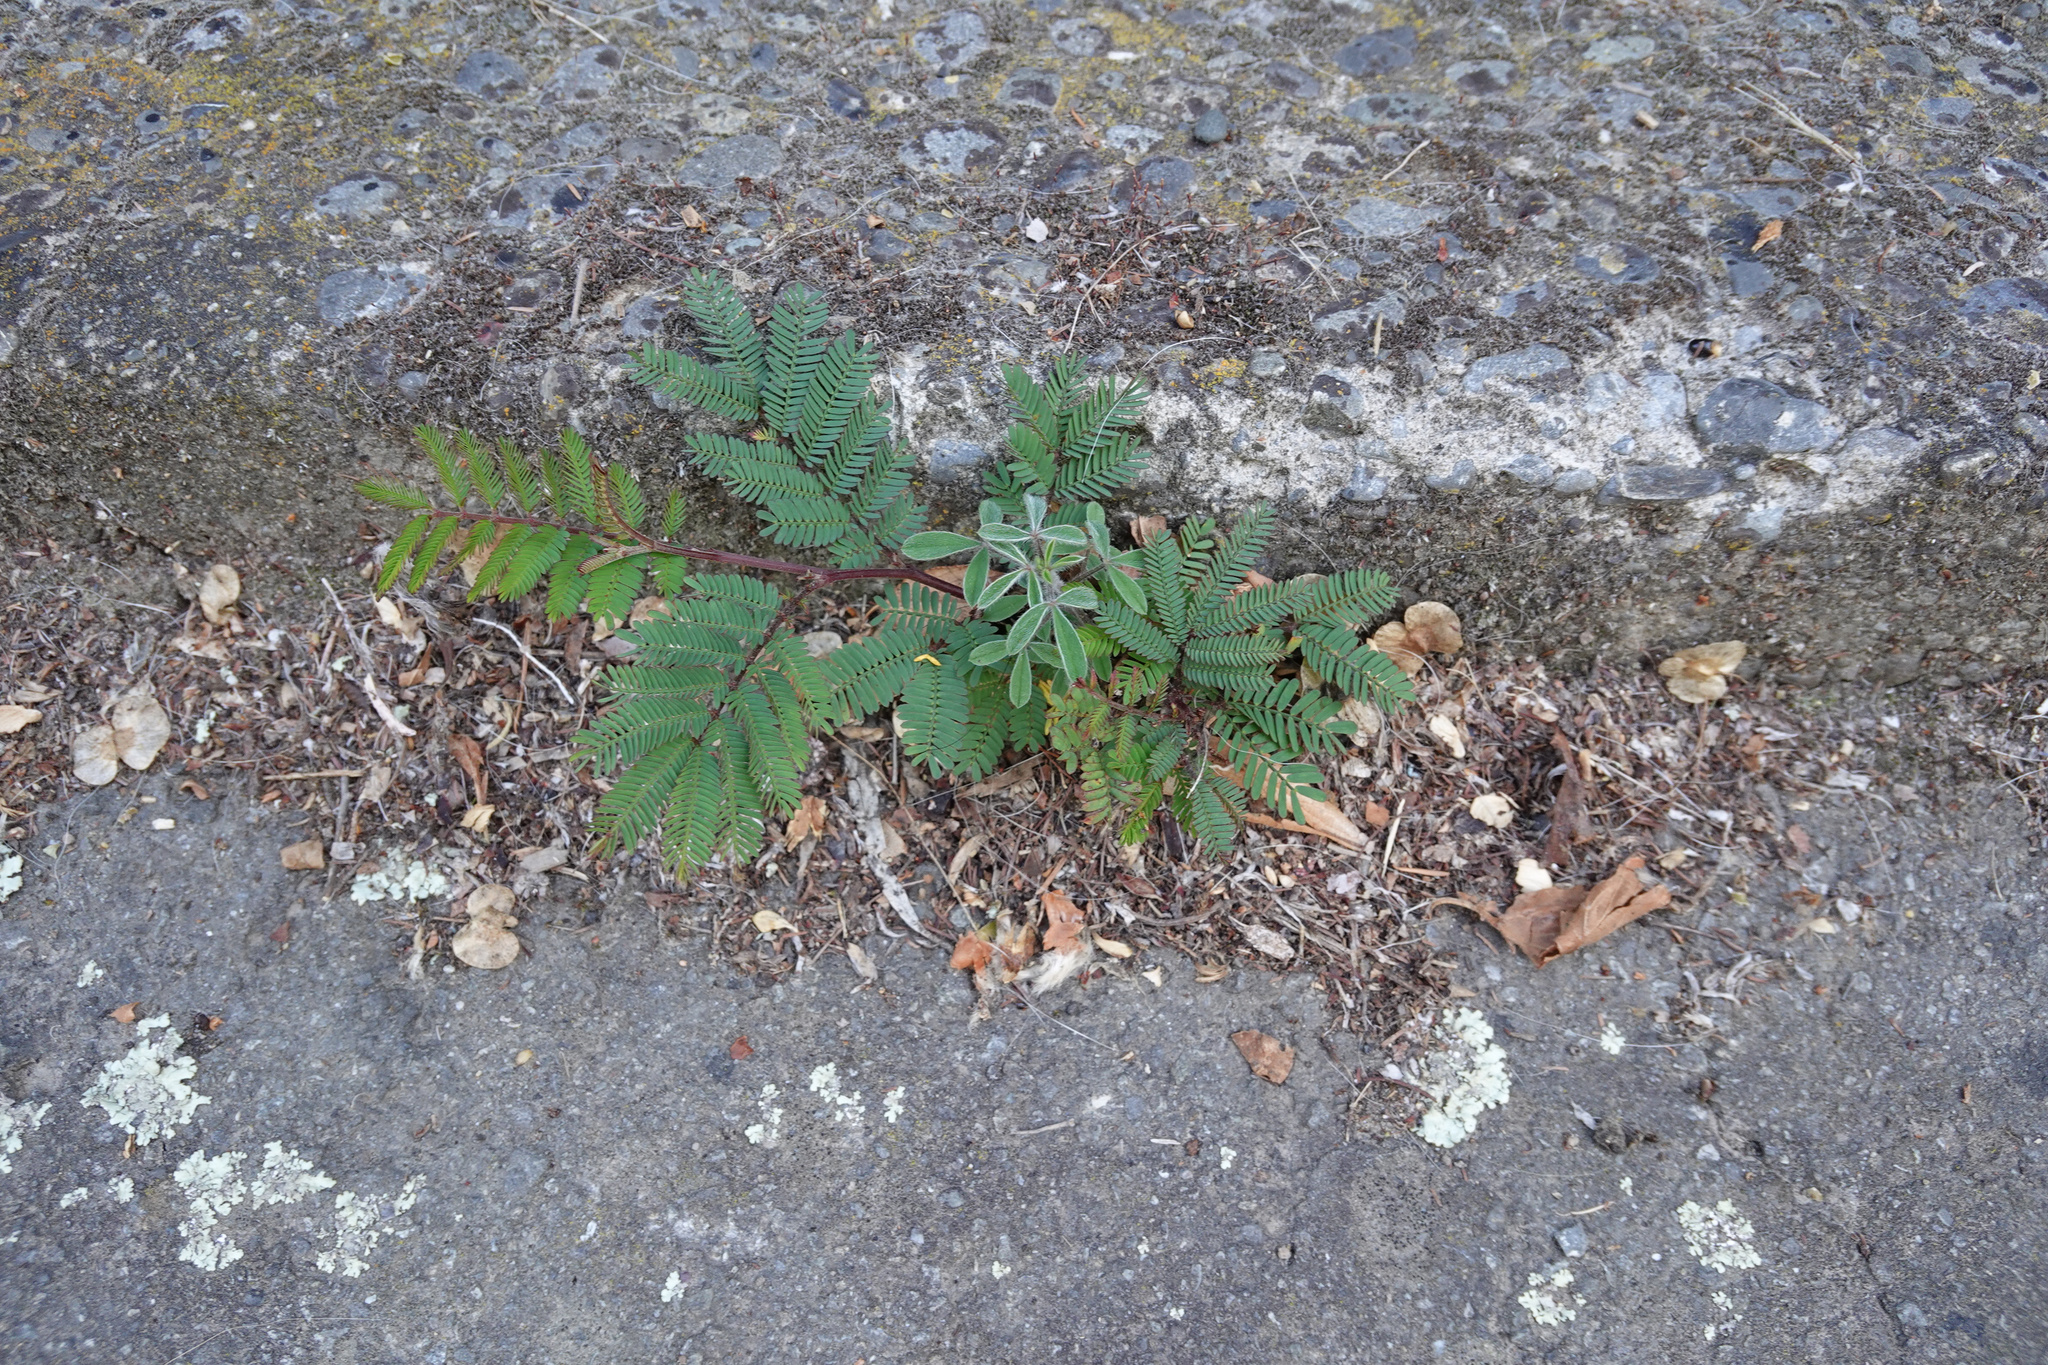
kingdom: Plantae
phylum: Tracheophyta
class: Magnoliopsida
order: Fabales
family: Fabaceae
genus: Paraserianthes
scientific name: Paraserianthes lophantha
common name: Plume albizia
